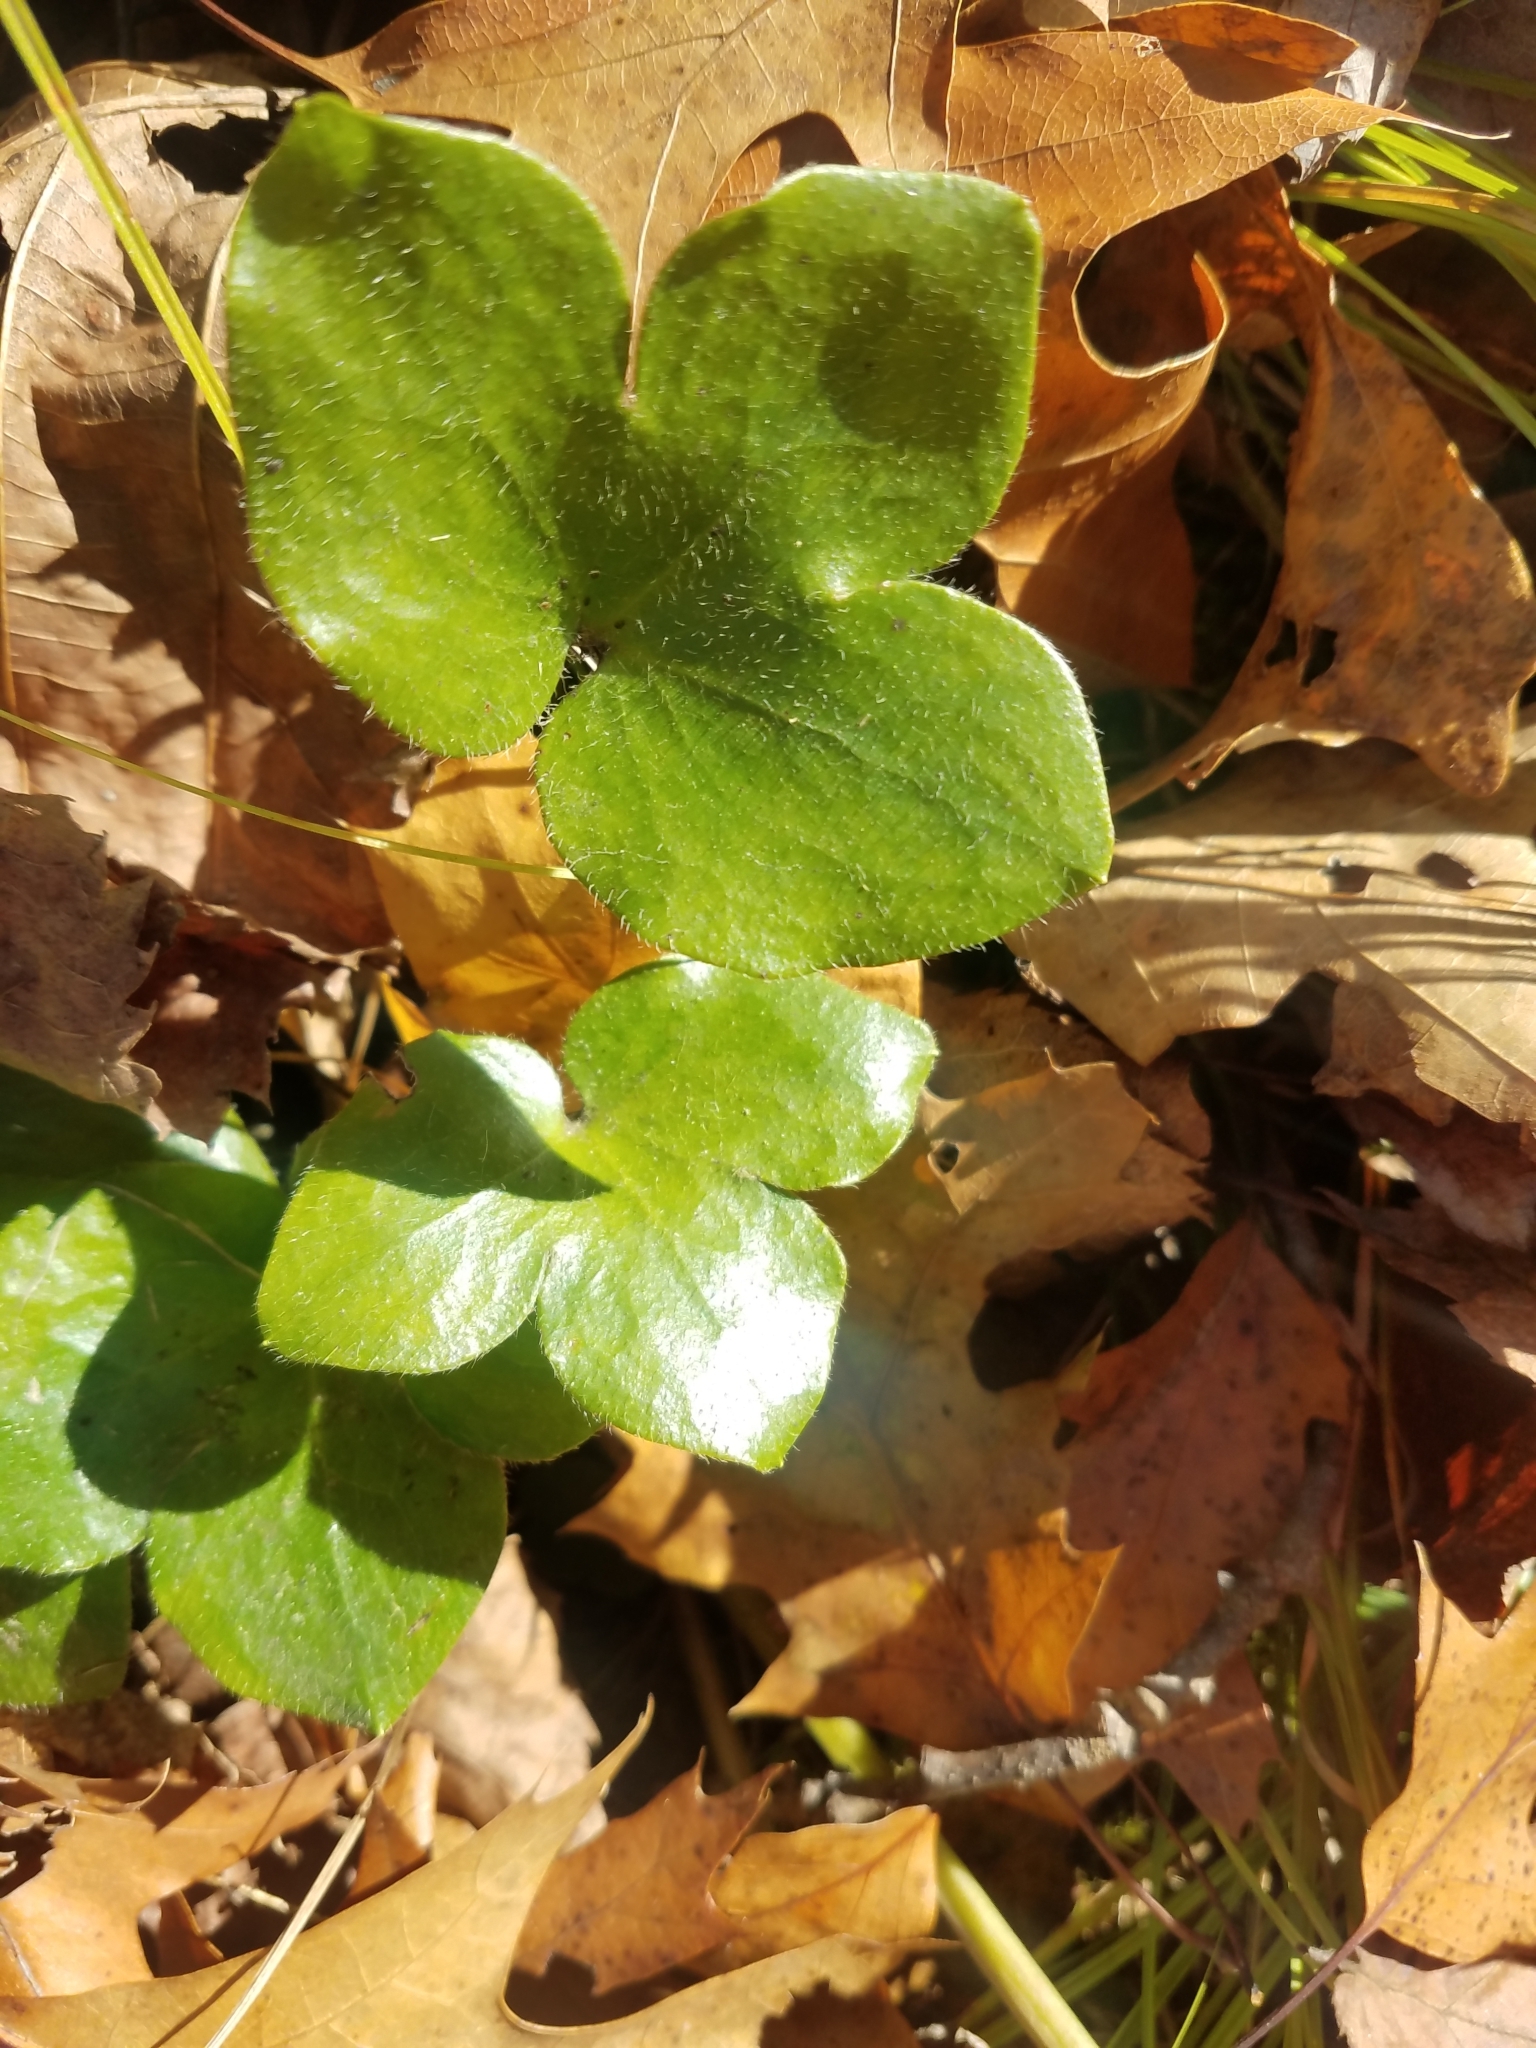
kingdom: Plantae
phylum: Tracheophyta
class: Magnoliopsida
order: Ranunculales
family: Ranunculaceae
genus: Hepatica
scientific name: Hepatica acutiloba
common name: Sharp-lobed hepatica
